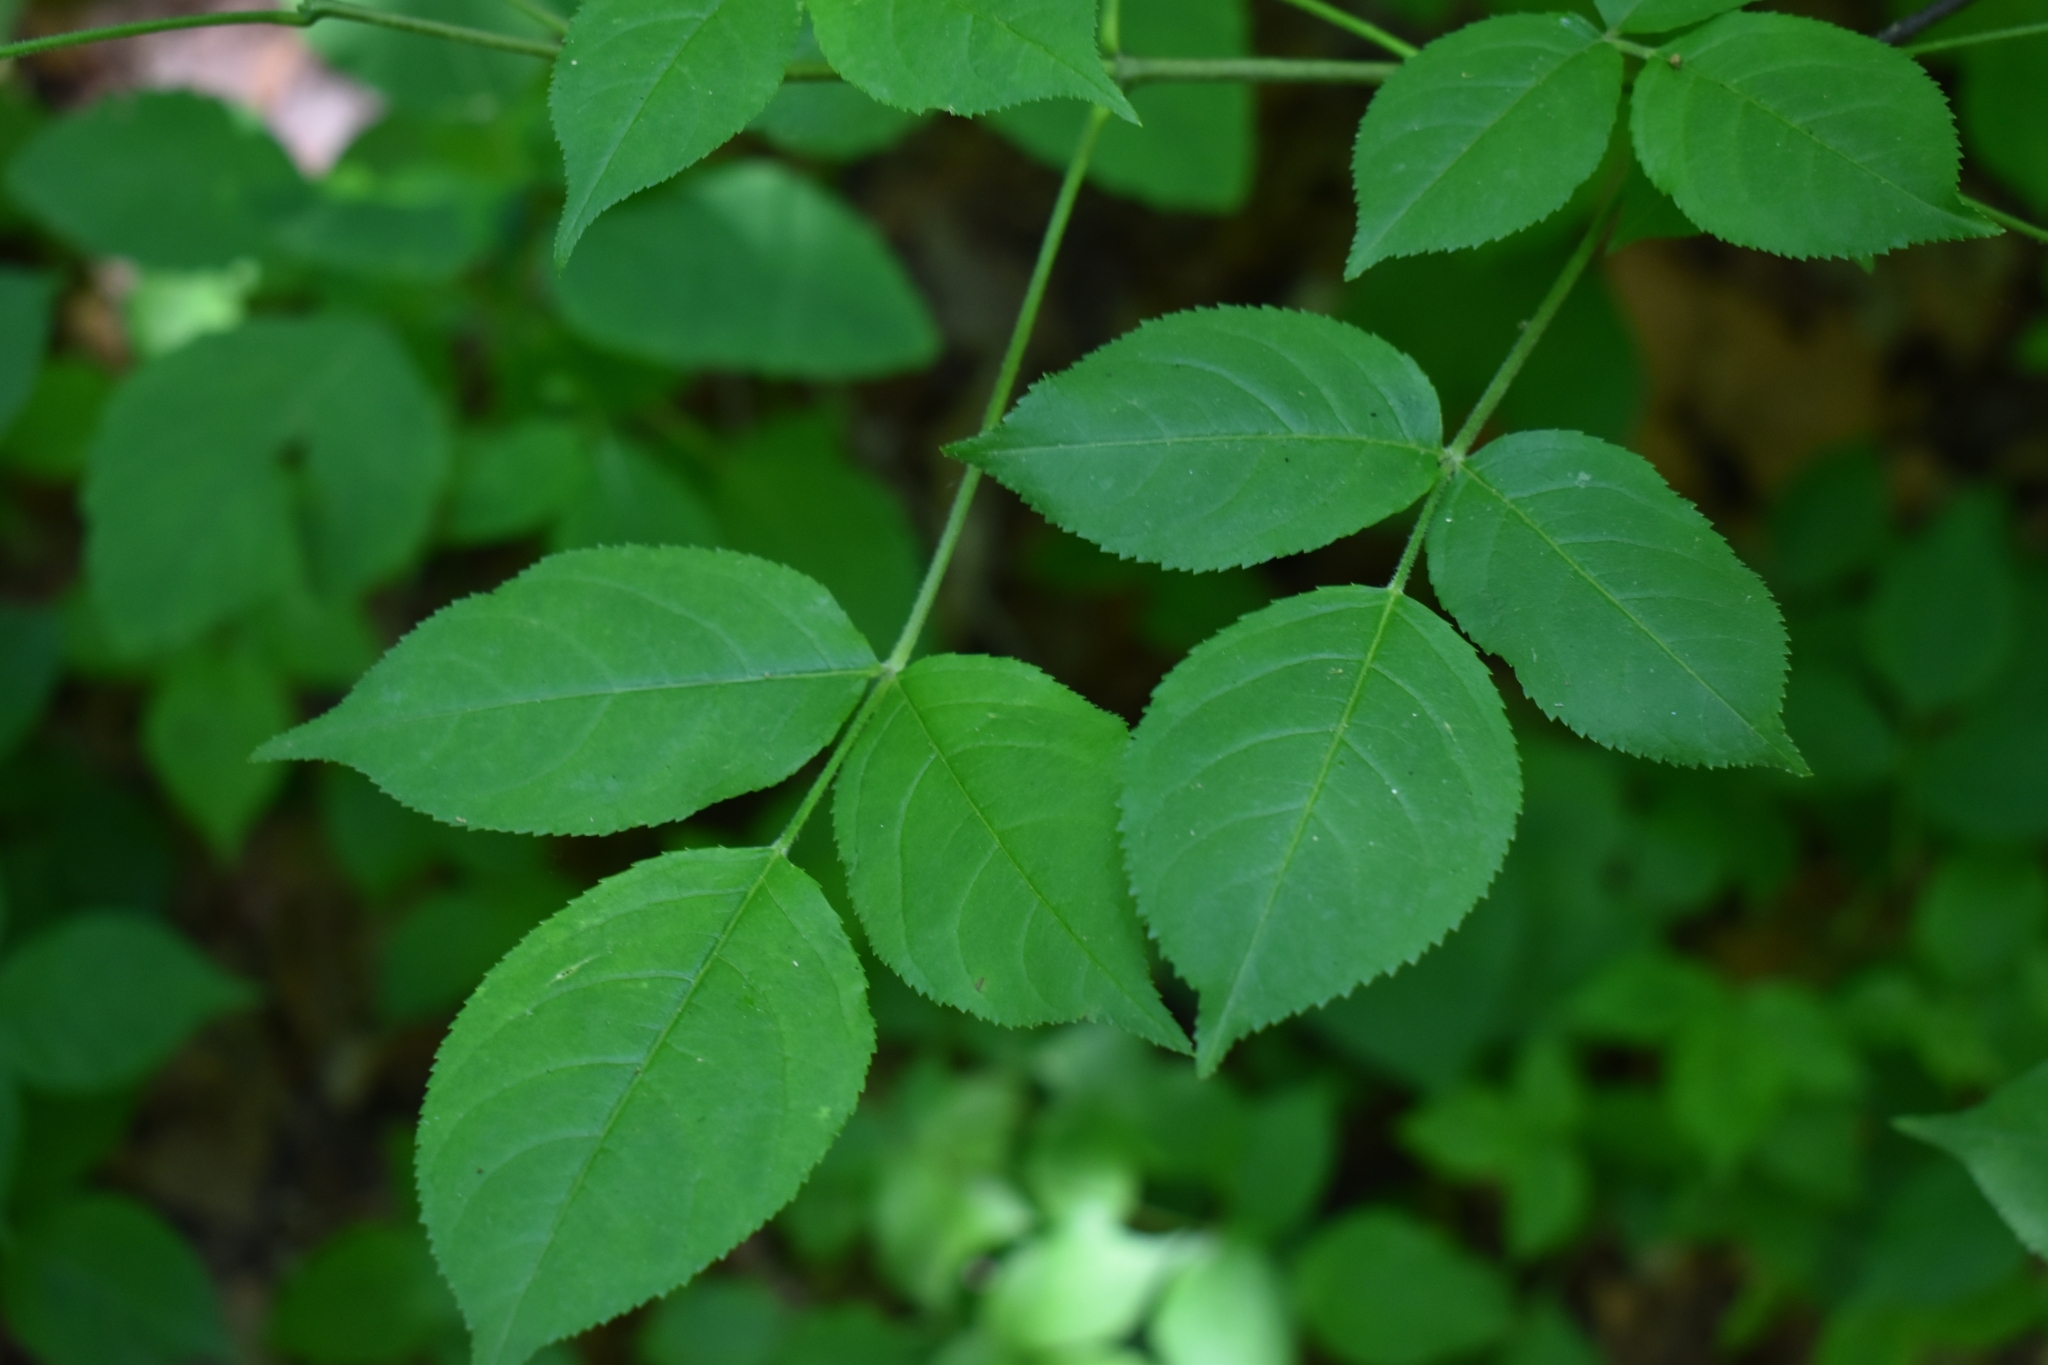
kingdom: Plantae
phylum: Tracheophyta
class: Magnoliopsida
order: Crossosomatales
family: Staphyleaceae
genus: Staphylea
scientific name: Staphylea trifolia
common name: American bladdernut
